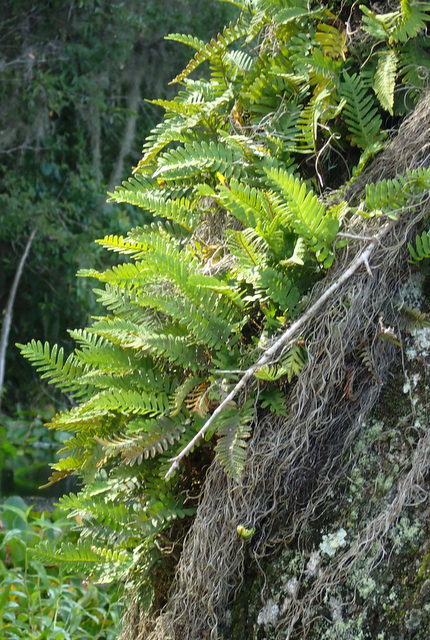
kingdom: Plantae
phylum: Tracheophyta
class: Polypodiopsida
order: Polypodiales
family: Polypodiaceae
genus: Pleopeltis
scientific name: Pleopeltis michauxiana
